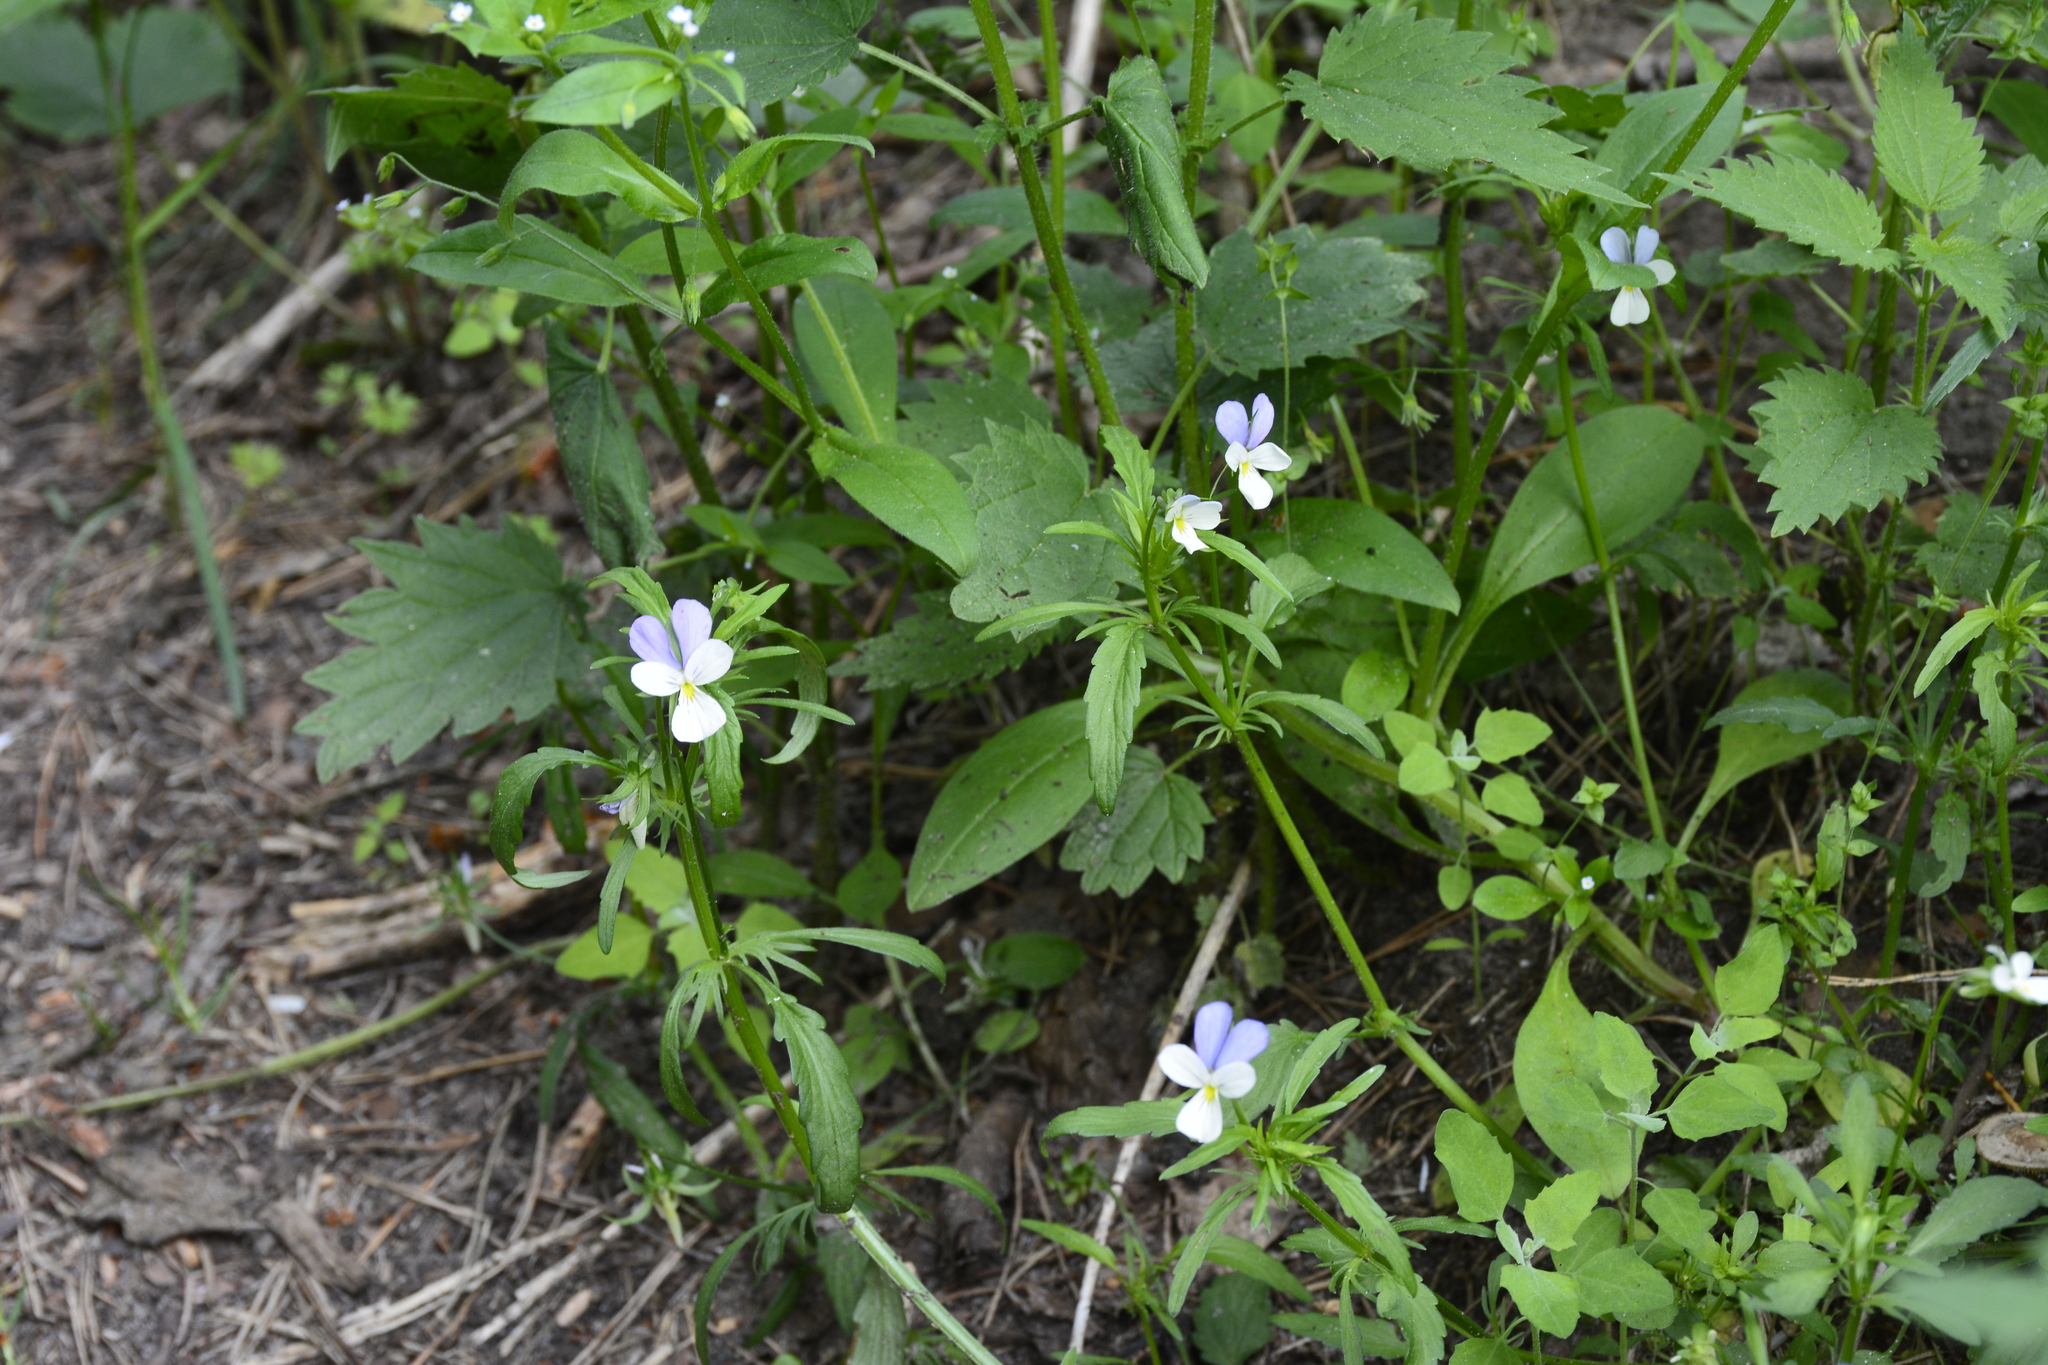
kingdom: Plantae
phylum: Tracheophyta
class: Magnoliopsida
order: Malpighiales
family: Violaceae
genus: Viola
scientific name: Viola tricolor
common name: Pansy
